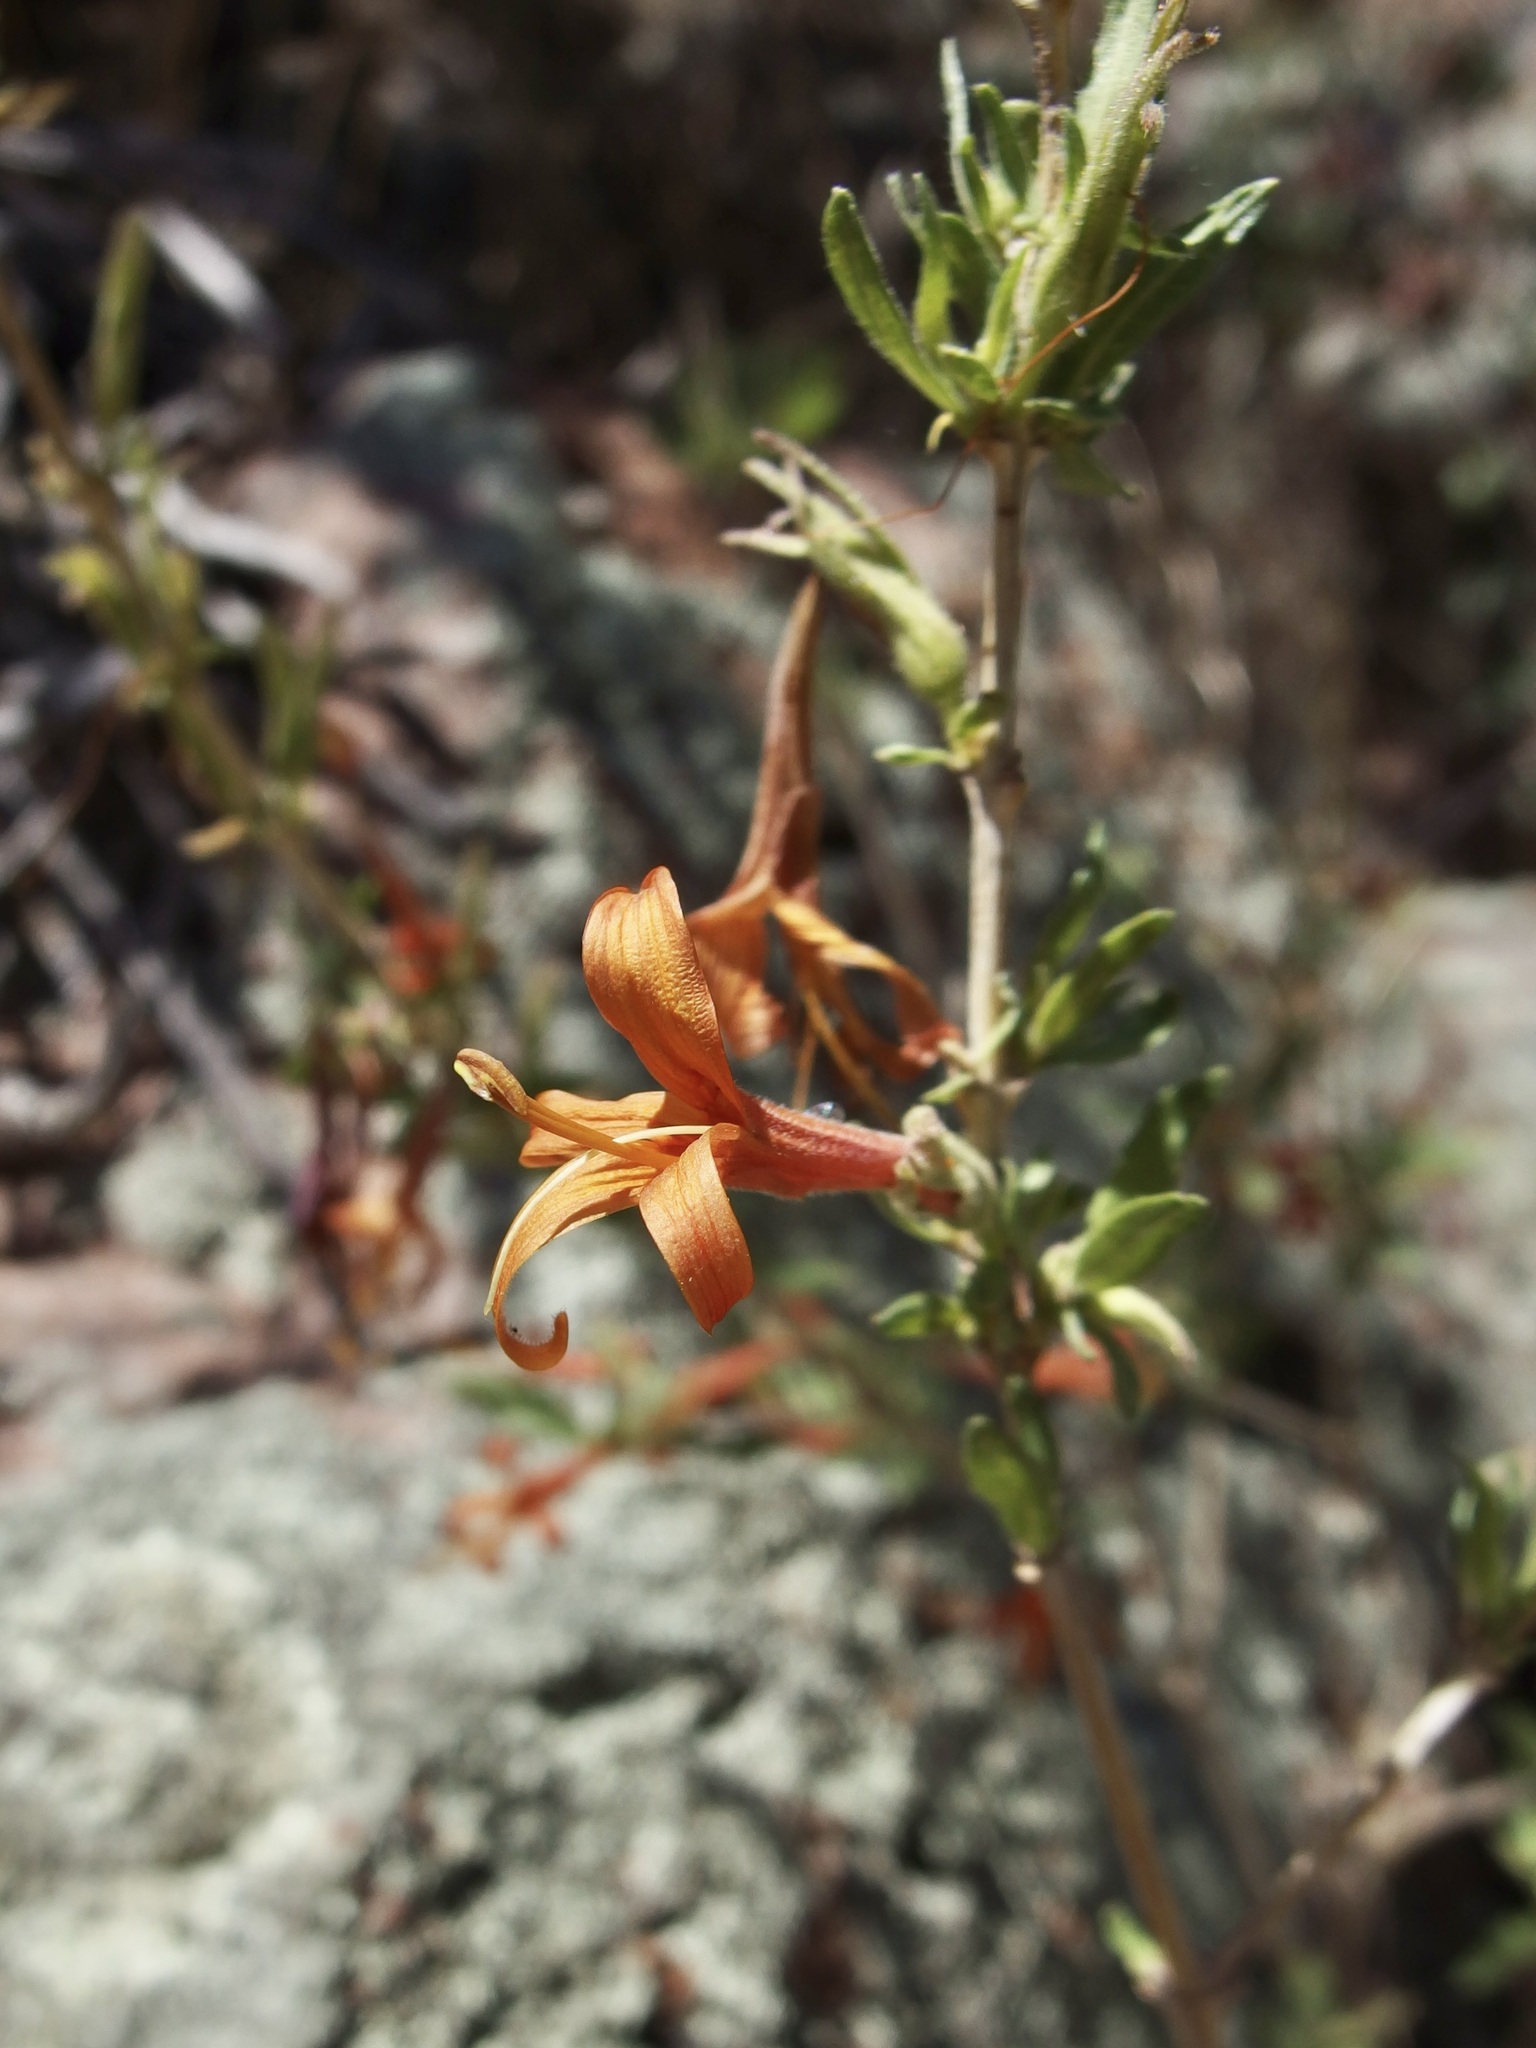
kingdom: Plantae
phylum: Tracheophyta
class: Magnoliopsida
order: Lamiales
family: Acanthaceae
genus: Anisacanthus
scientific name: Anisacanthus thurberi
